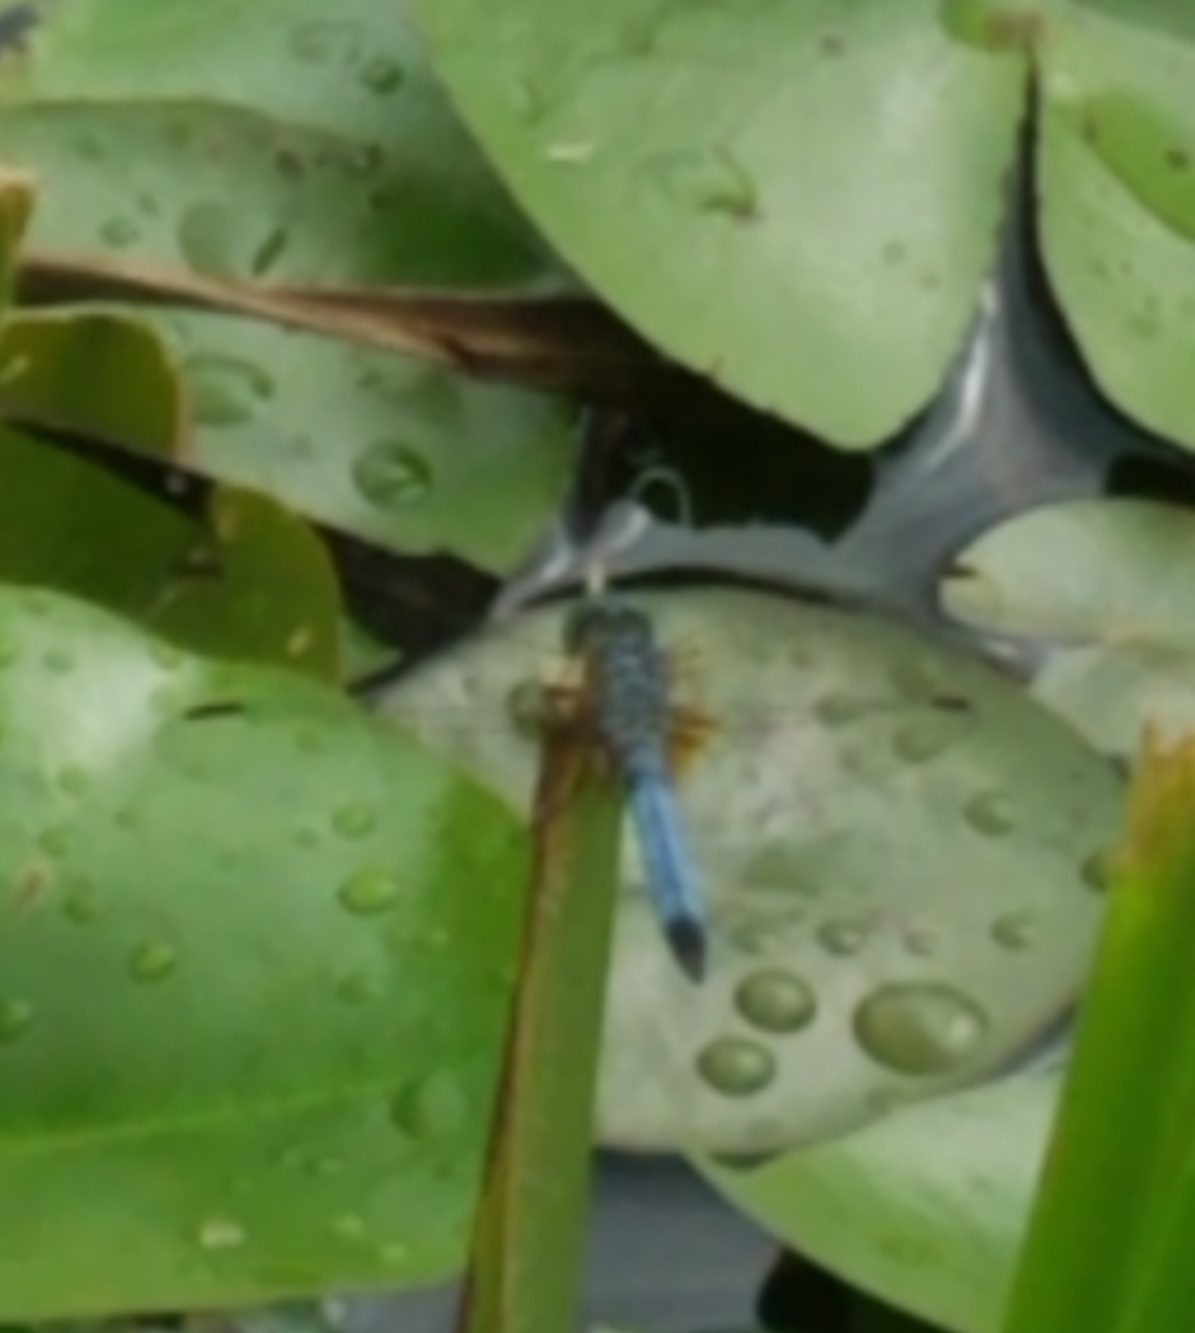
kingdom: Animalia
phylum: Arthropoda
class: Insecta
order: Odonata
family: Libellulidae
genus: Pachydiplax
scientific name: Pachydiplax longipennis
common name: Blue dasher
